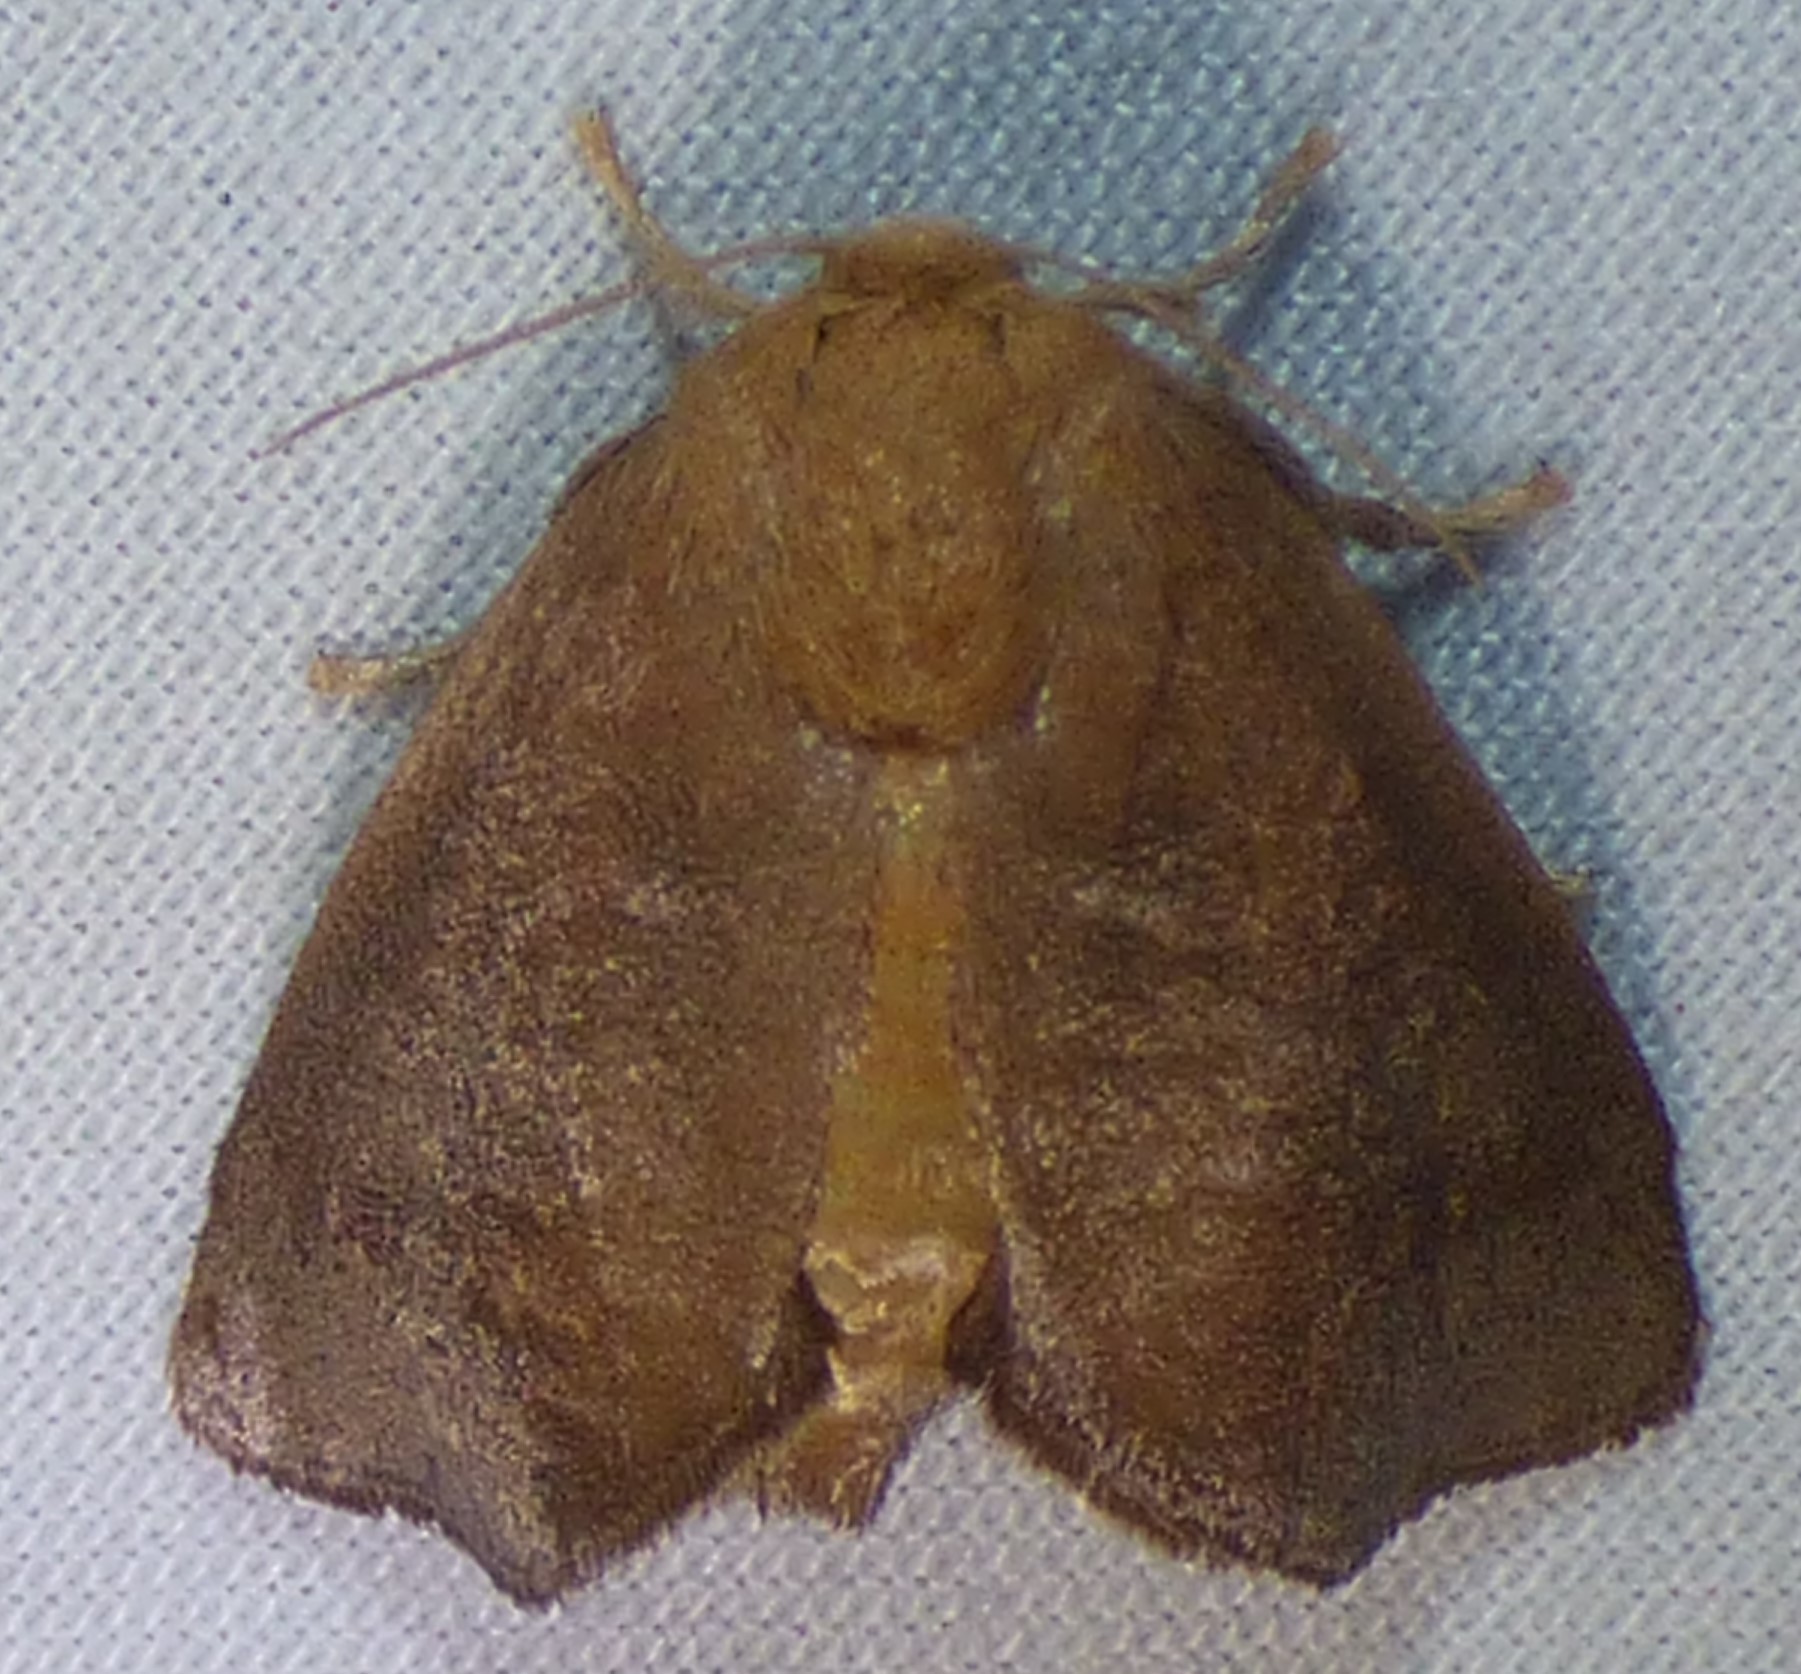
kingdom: Animalia
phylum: Arthropoda
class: Insecta
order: Lepidoptera
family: Limacodidae
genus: Isa
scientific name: Isa textula
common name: Crowned slug moth
